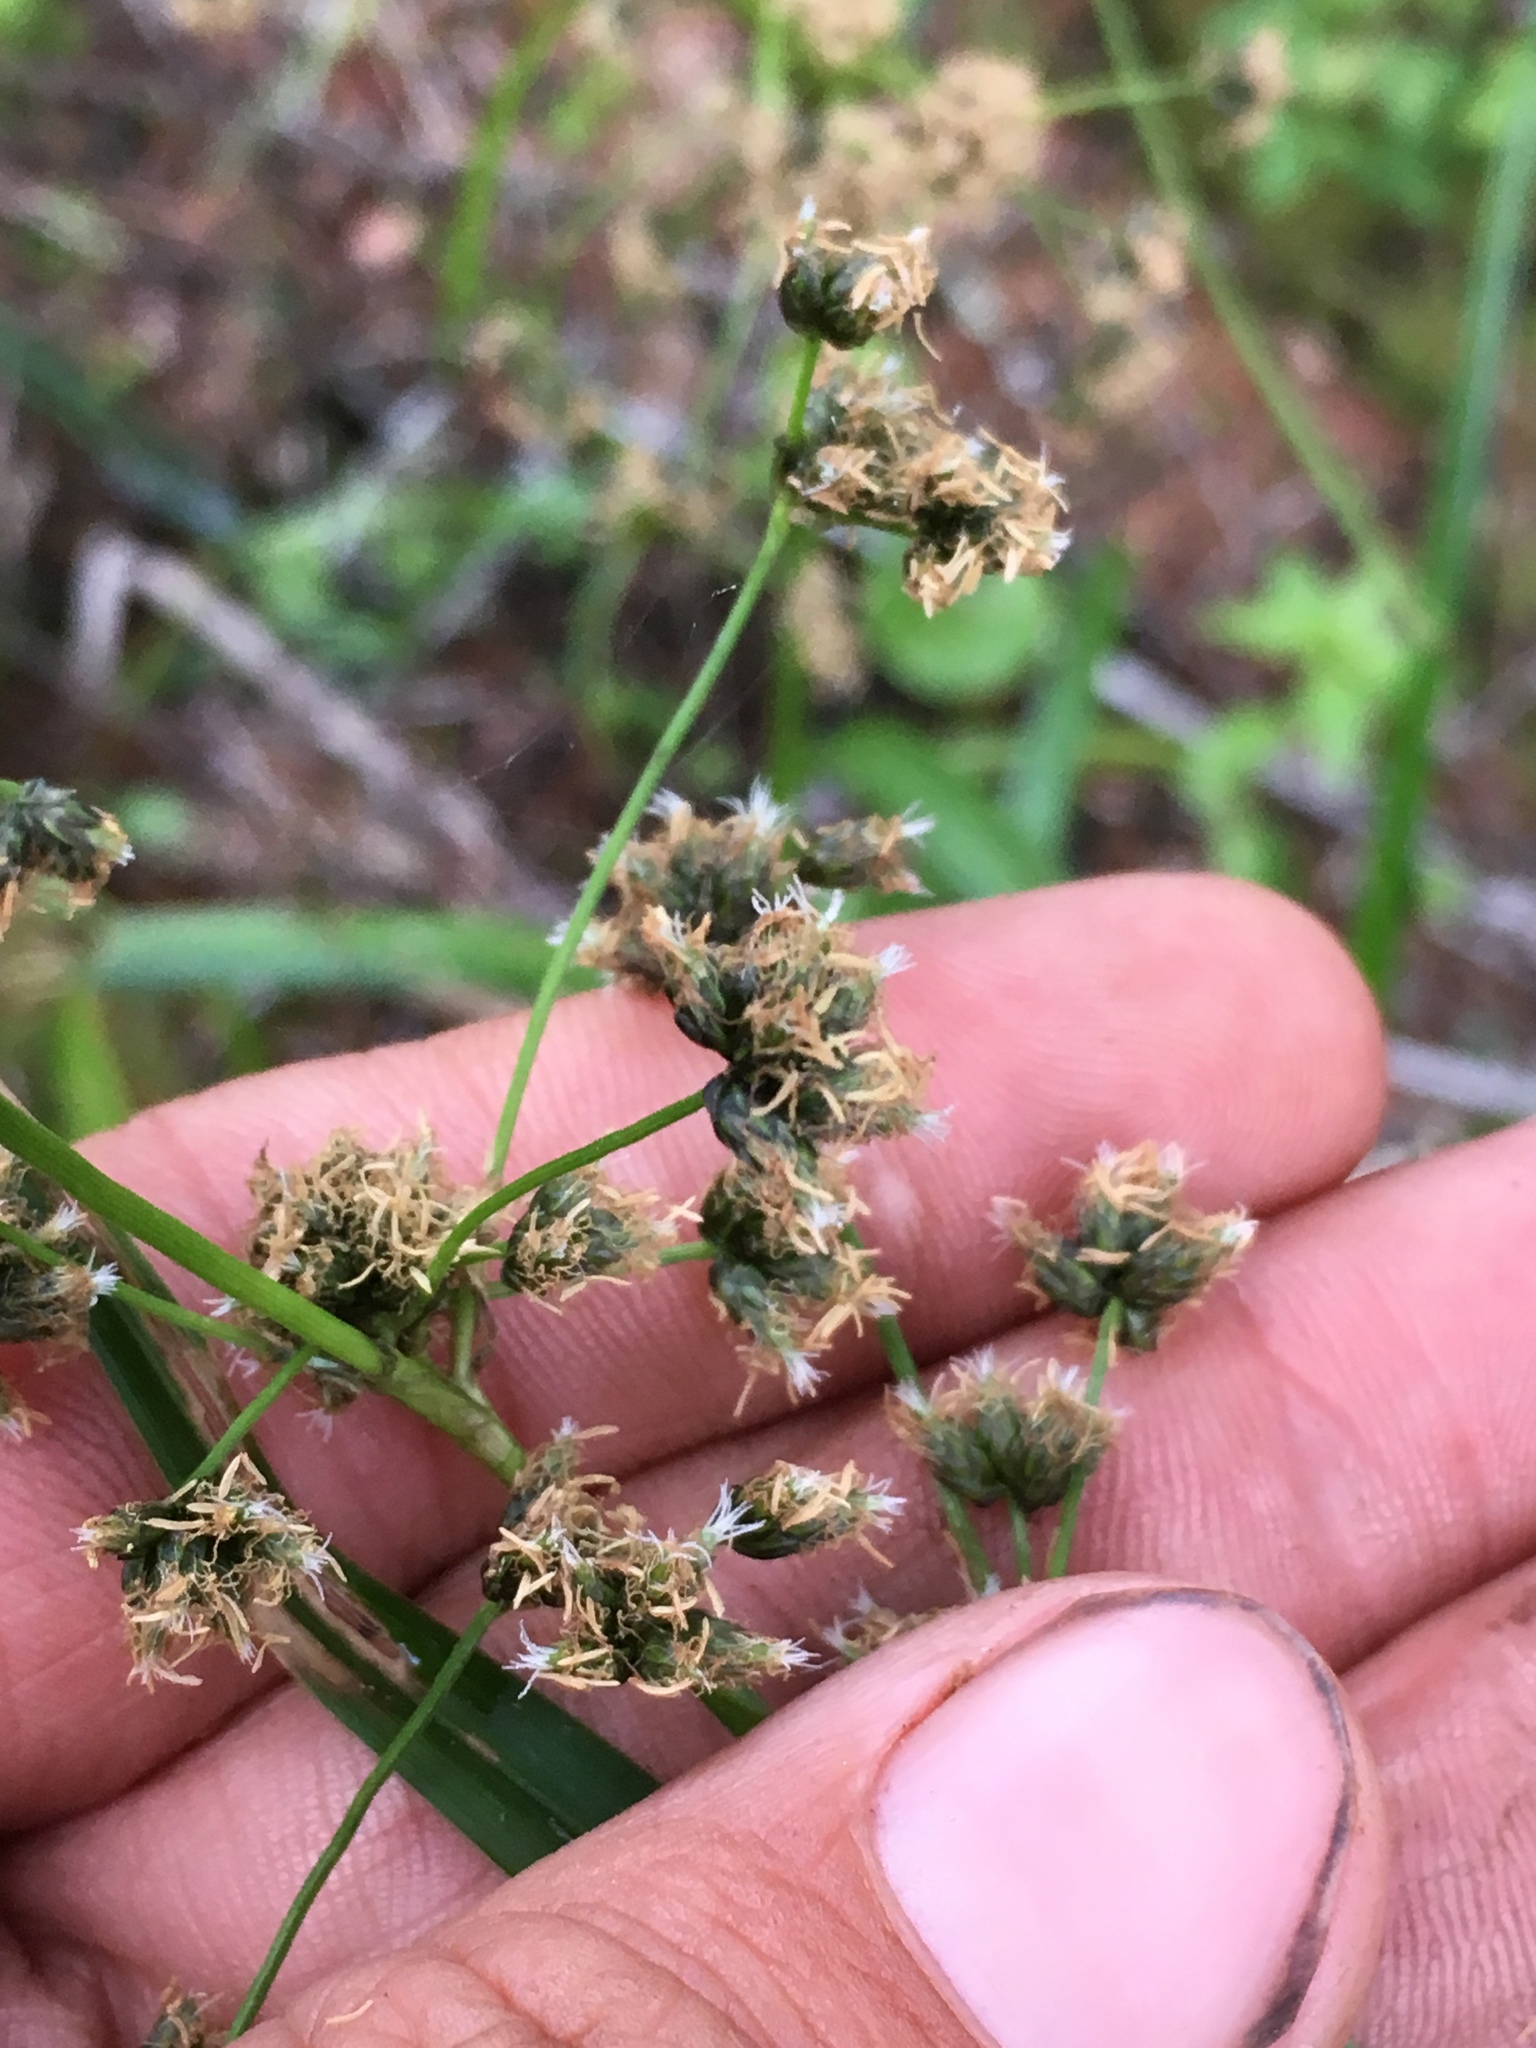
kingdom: Plantae
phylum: Tracheophyta
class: Liliopsida
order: Poales
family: Cyperaceae
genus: Scirpus
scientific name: Scirpus microcarpus
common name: Panicled bulrush
